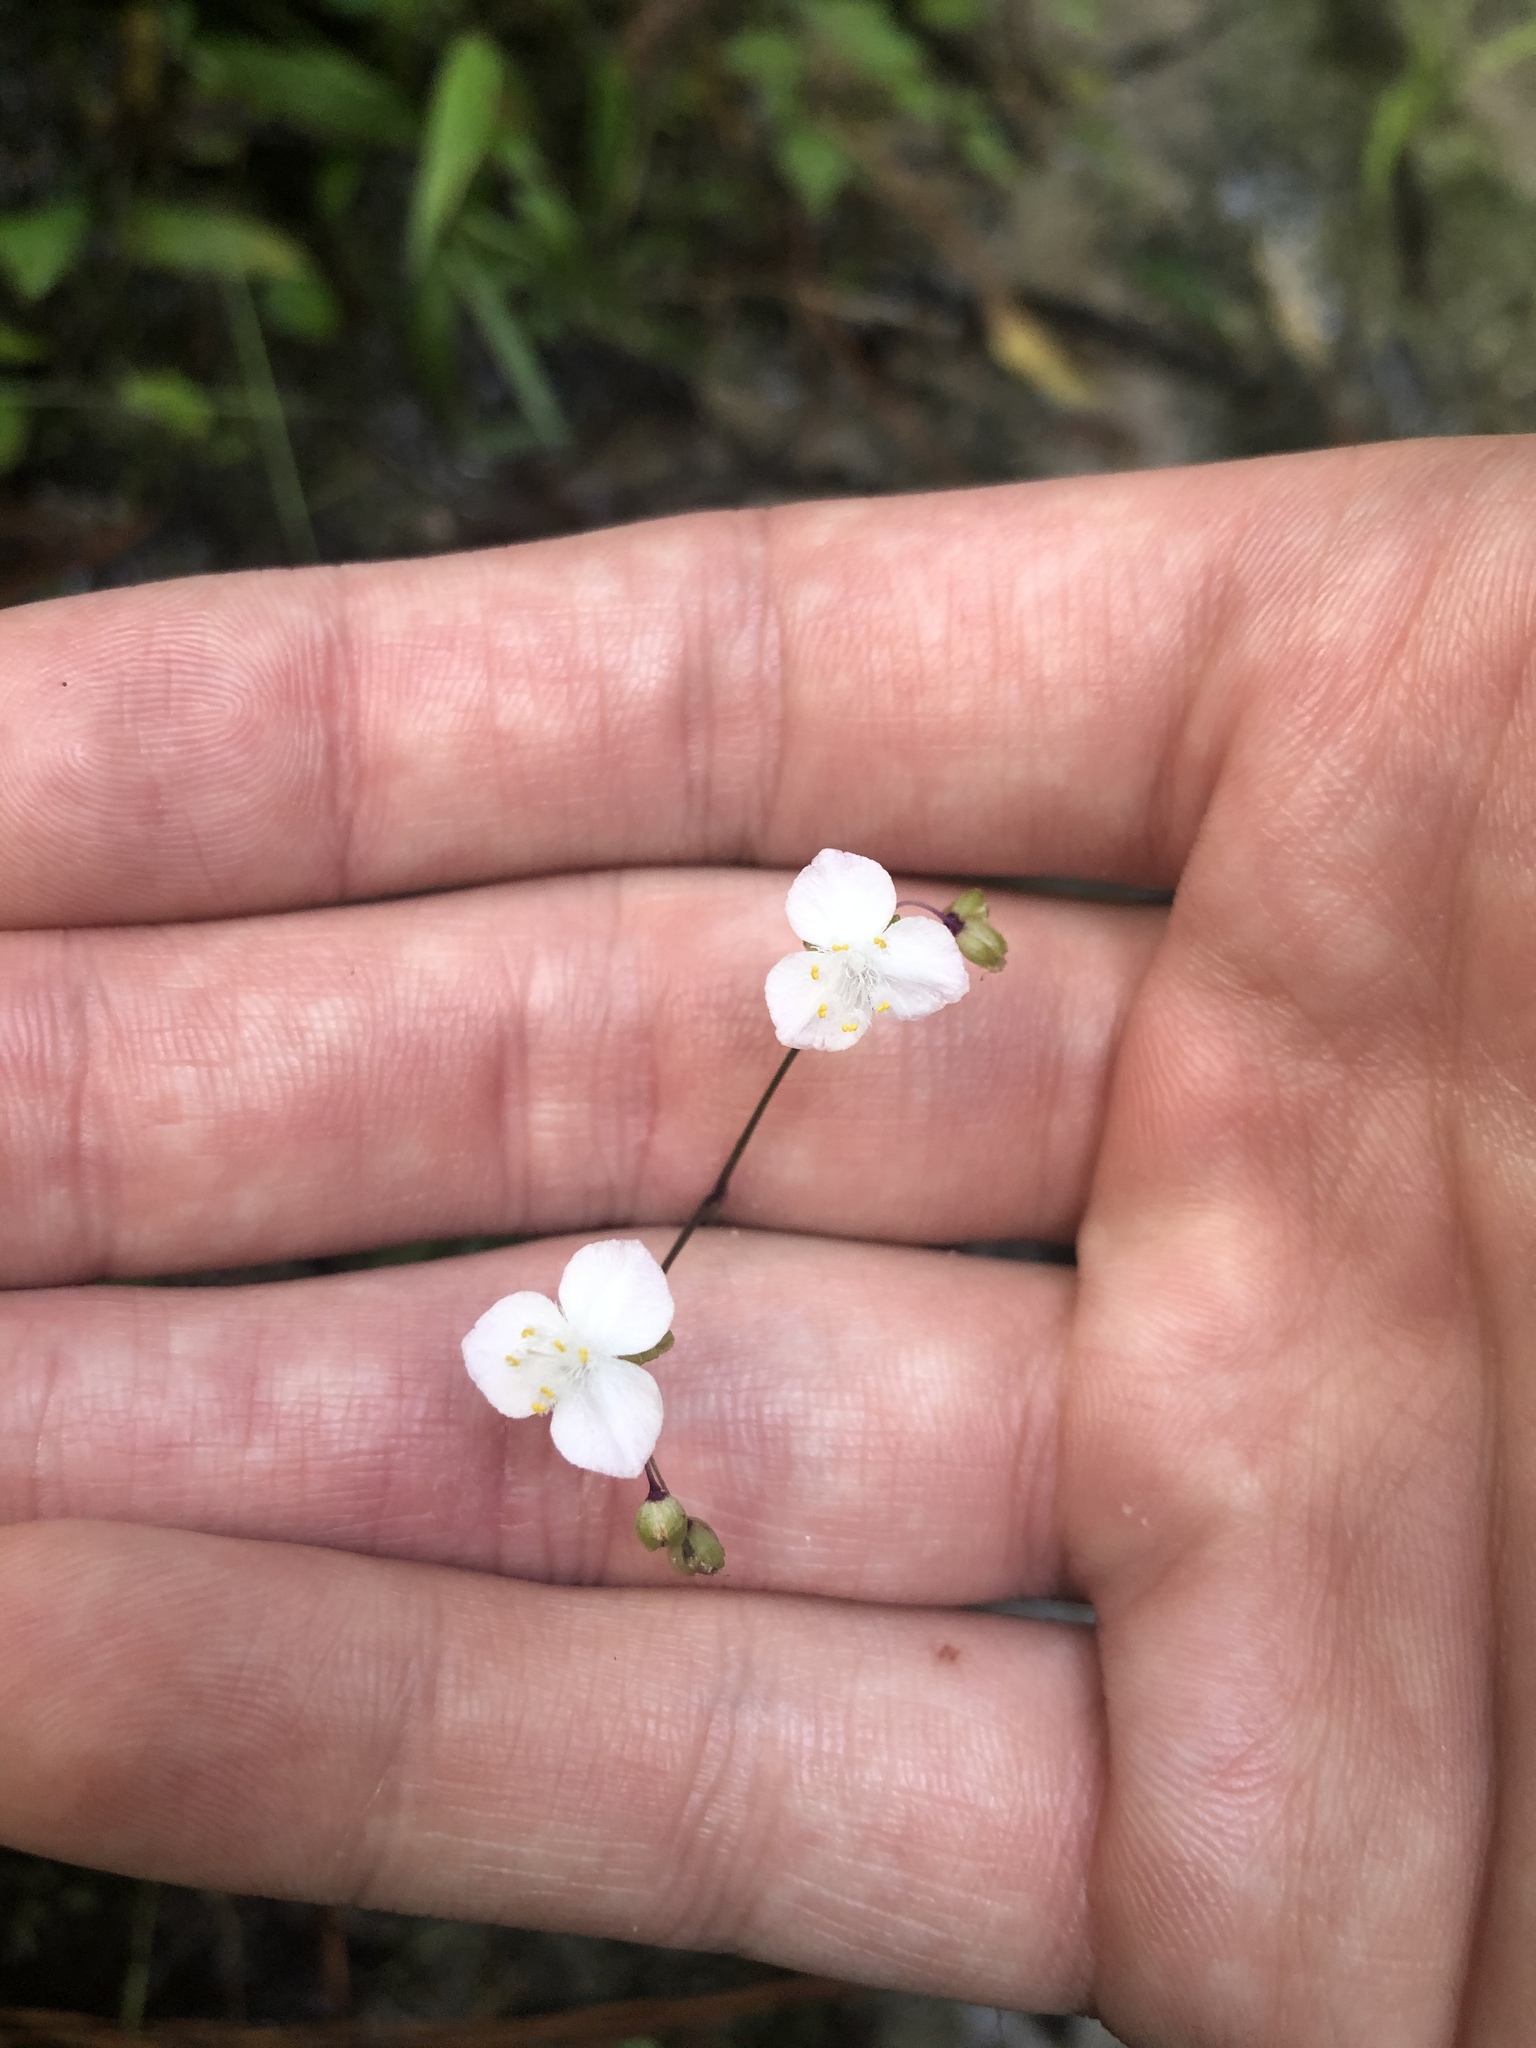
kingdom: Plantae
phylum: Tracheophyta
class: Liliopsida
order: Commelinales
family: Commelinaceae
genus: Gibasis
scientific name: Gibasis pellucida
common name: Dotted bridalveil
